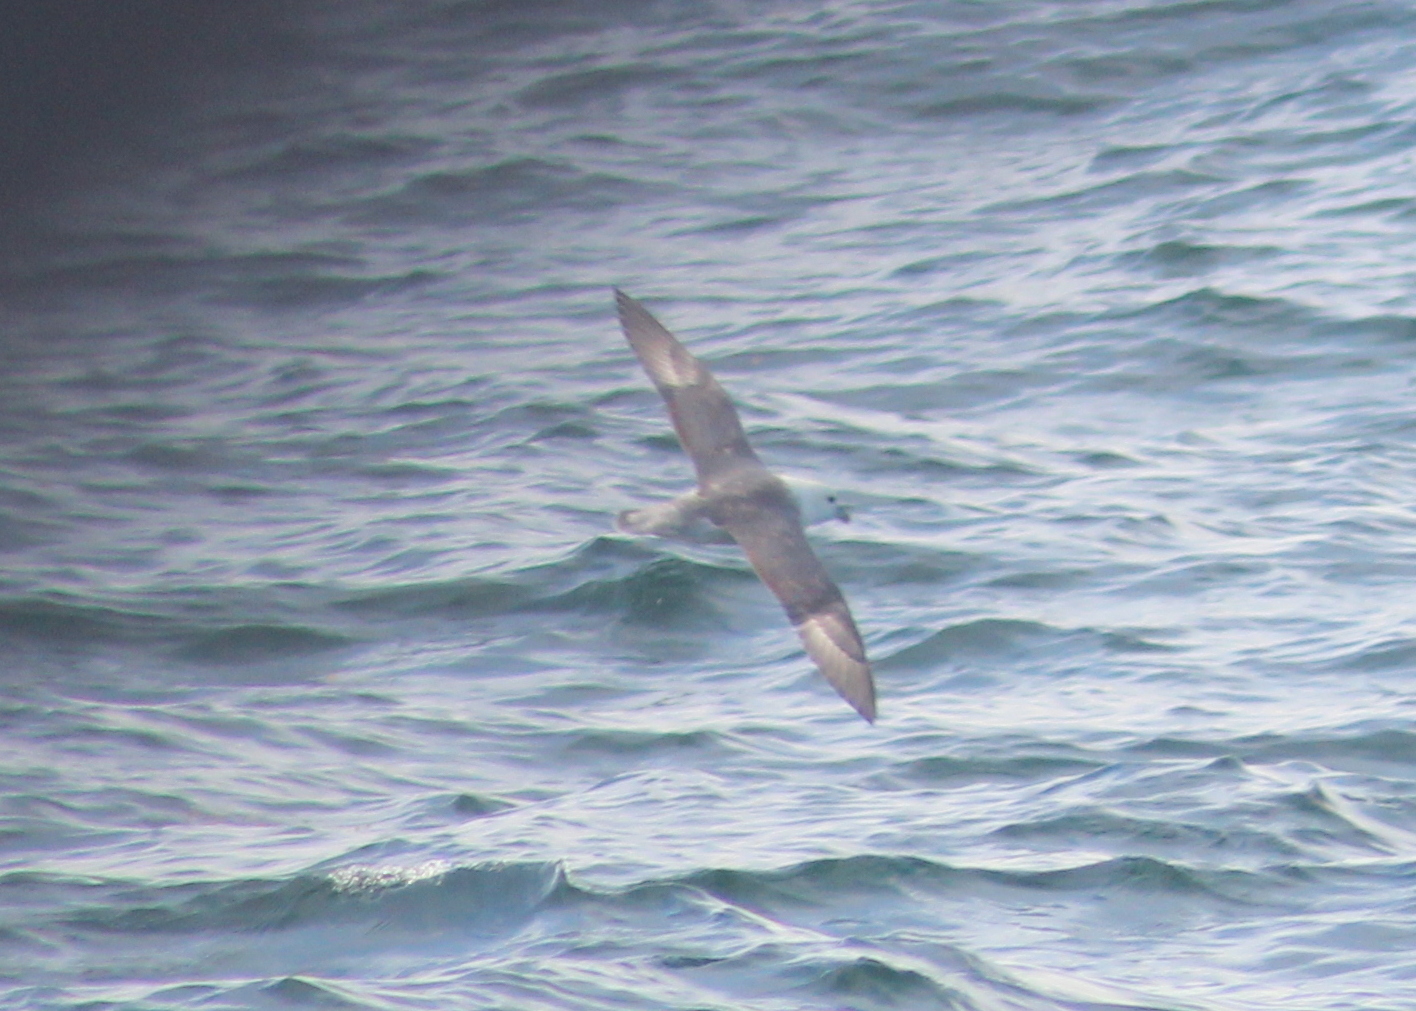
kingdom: Animalia
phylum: Chordata
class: Aves
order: Procellariiformes
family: Procellariidae
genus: Fulmarus
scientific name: Fulmarus glacialis
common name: Northern fulmar
